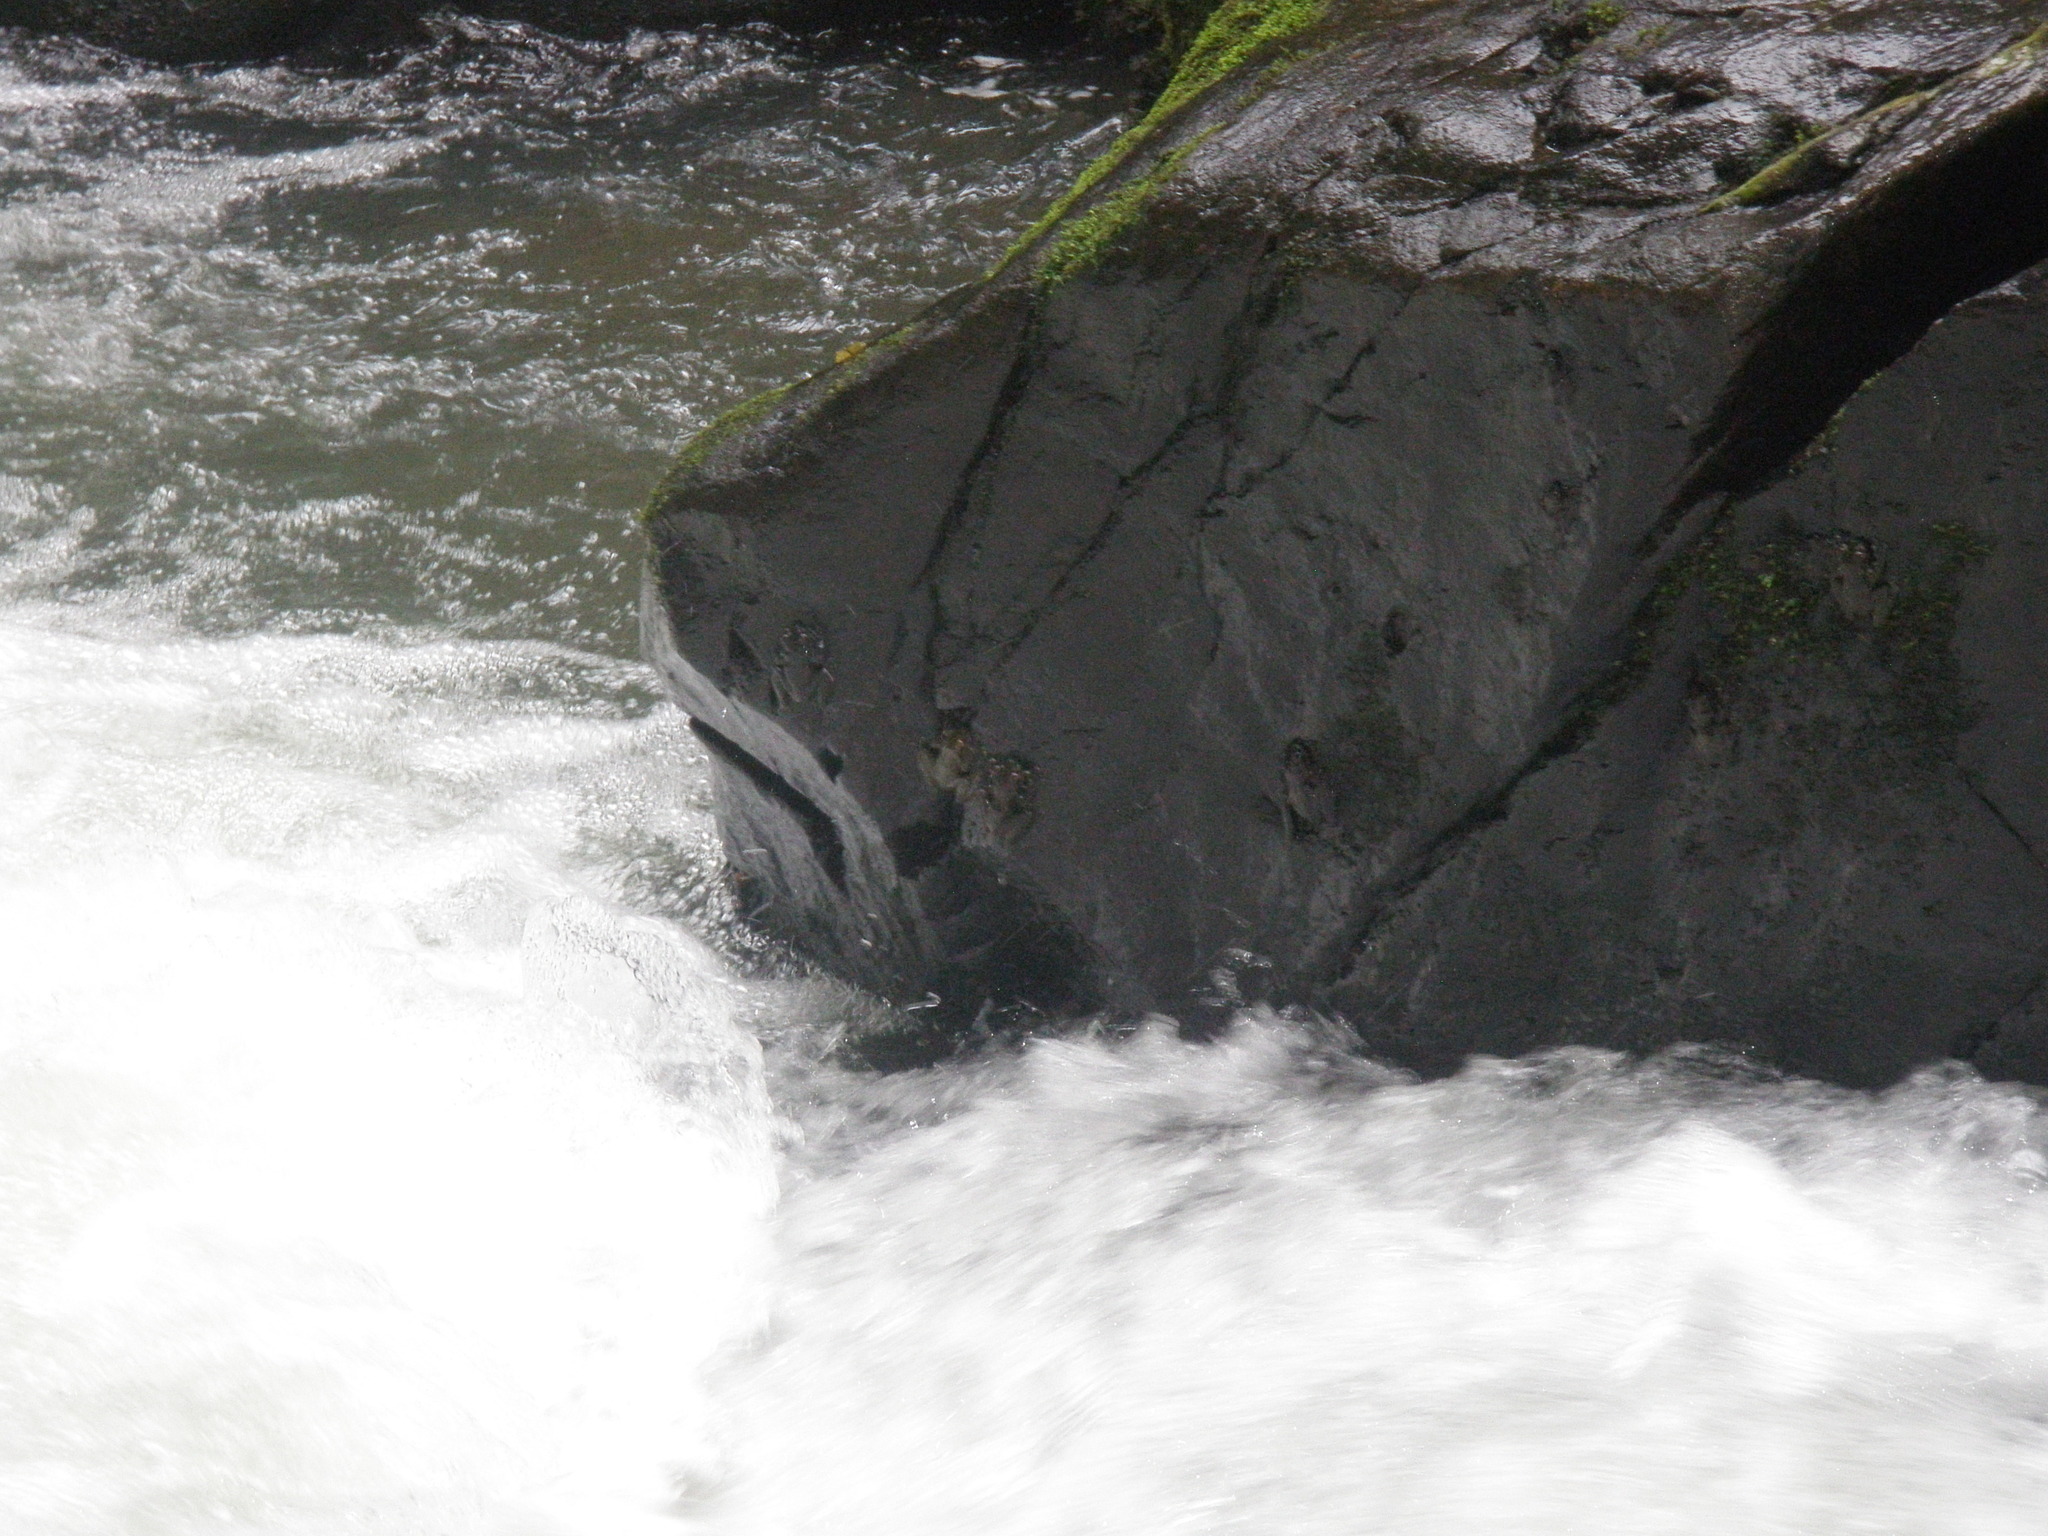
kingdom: Animalia
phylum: Chordata
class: Amphibia
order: Anura
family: Pelodryadidae
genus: Ranoidea
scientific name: Ranoidea nannotis
